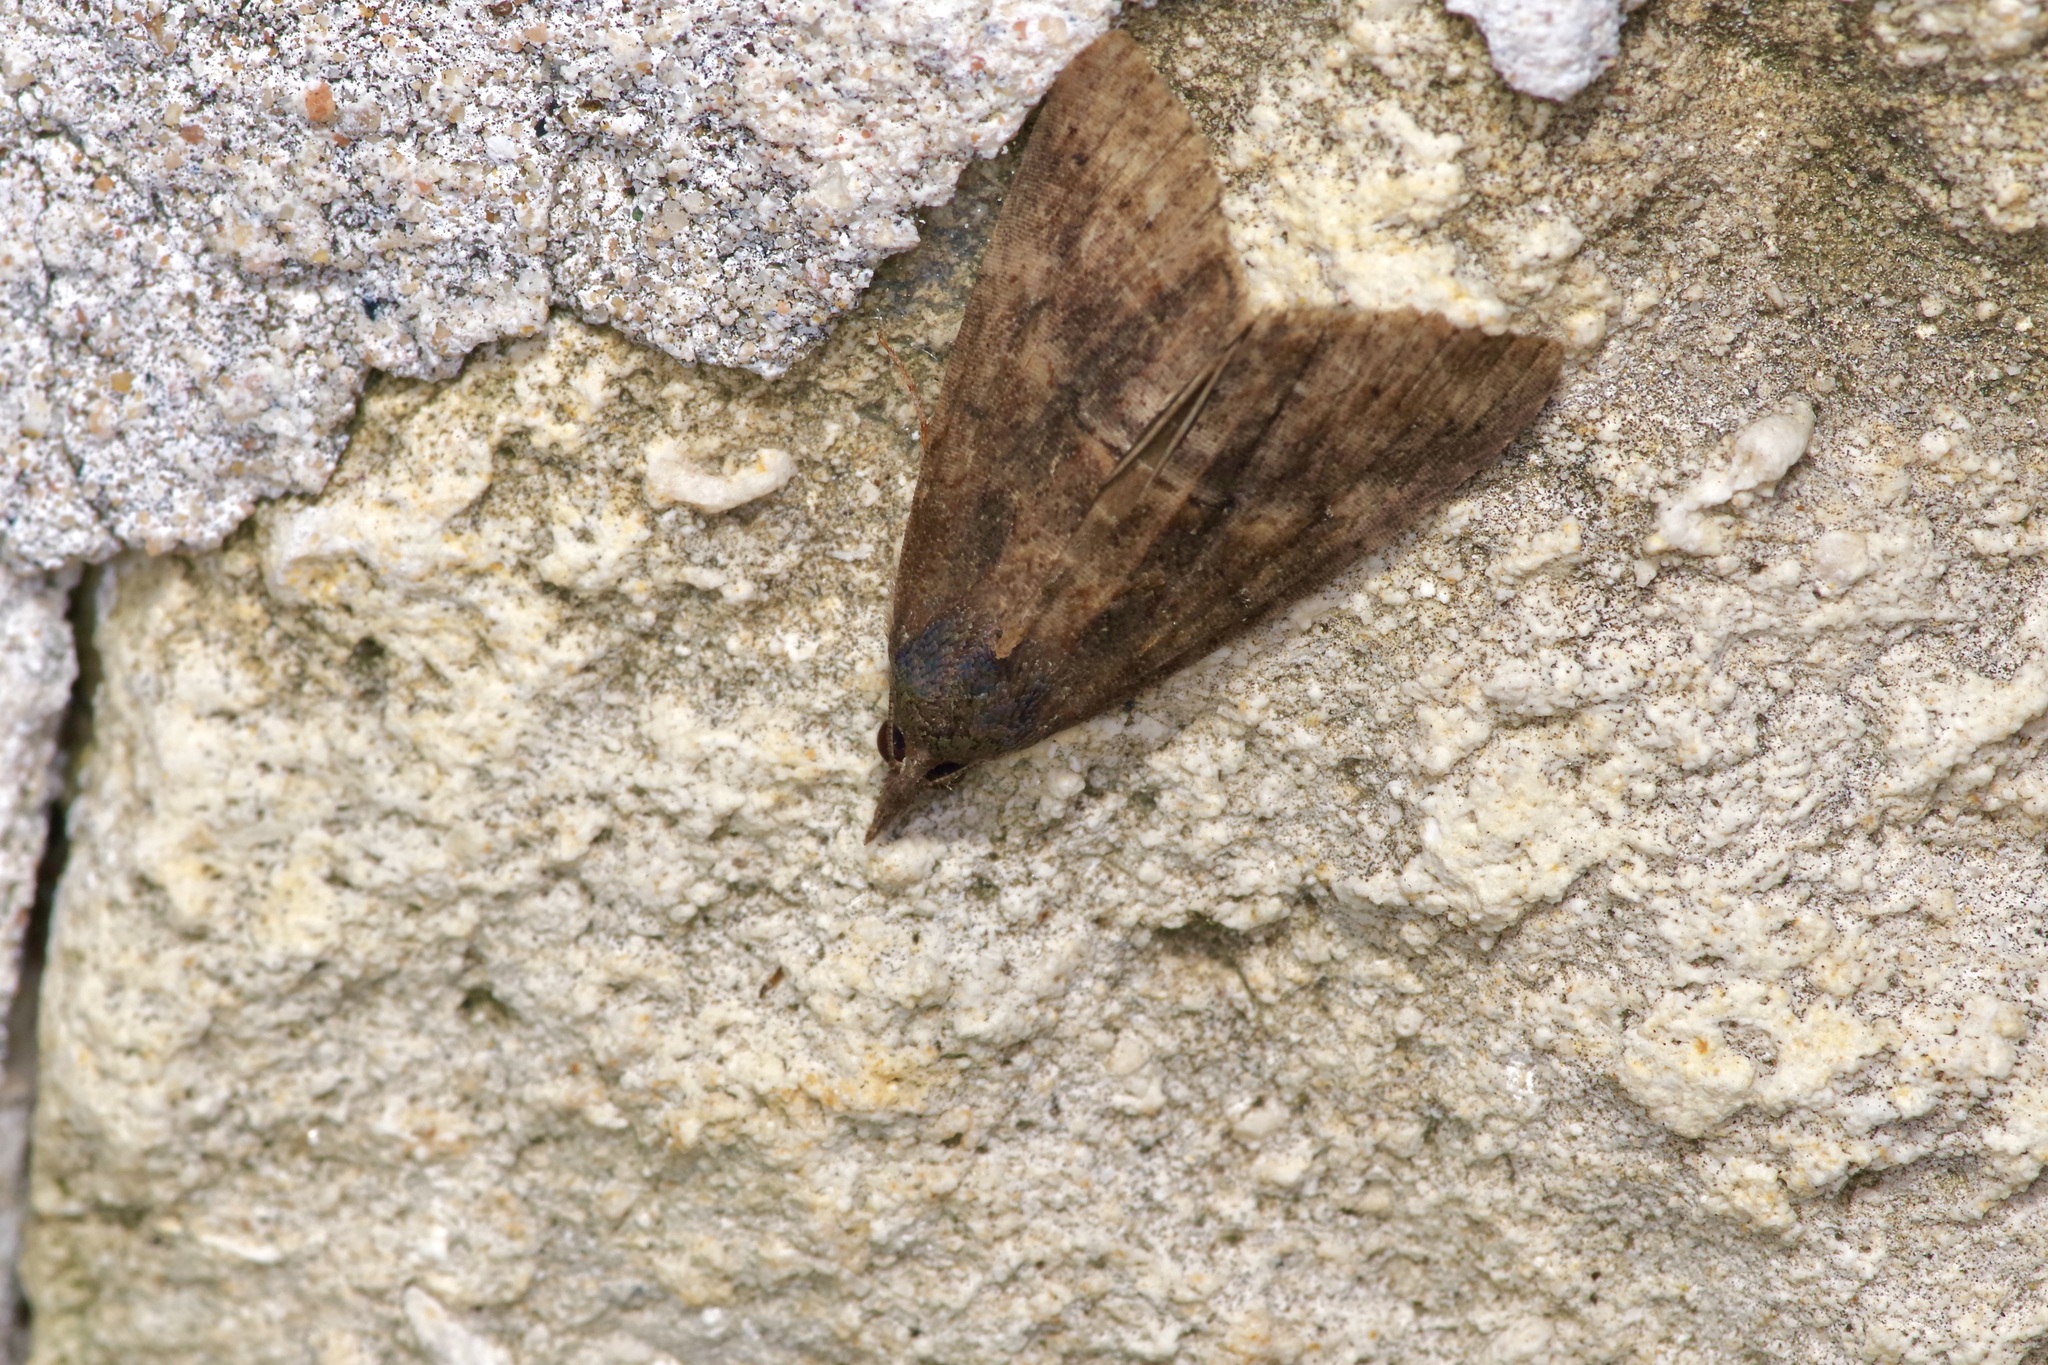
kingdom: Animalia
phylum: Arthropoda
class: Insecta
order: Lepidoptera
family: Erebidae
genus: Hypena
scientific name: Hypena scabra
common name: Green cloverworm
